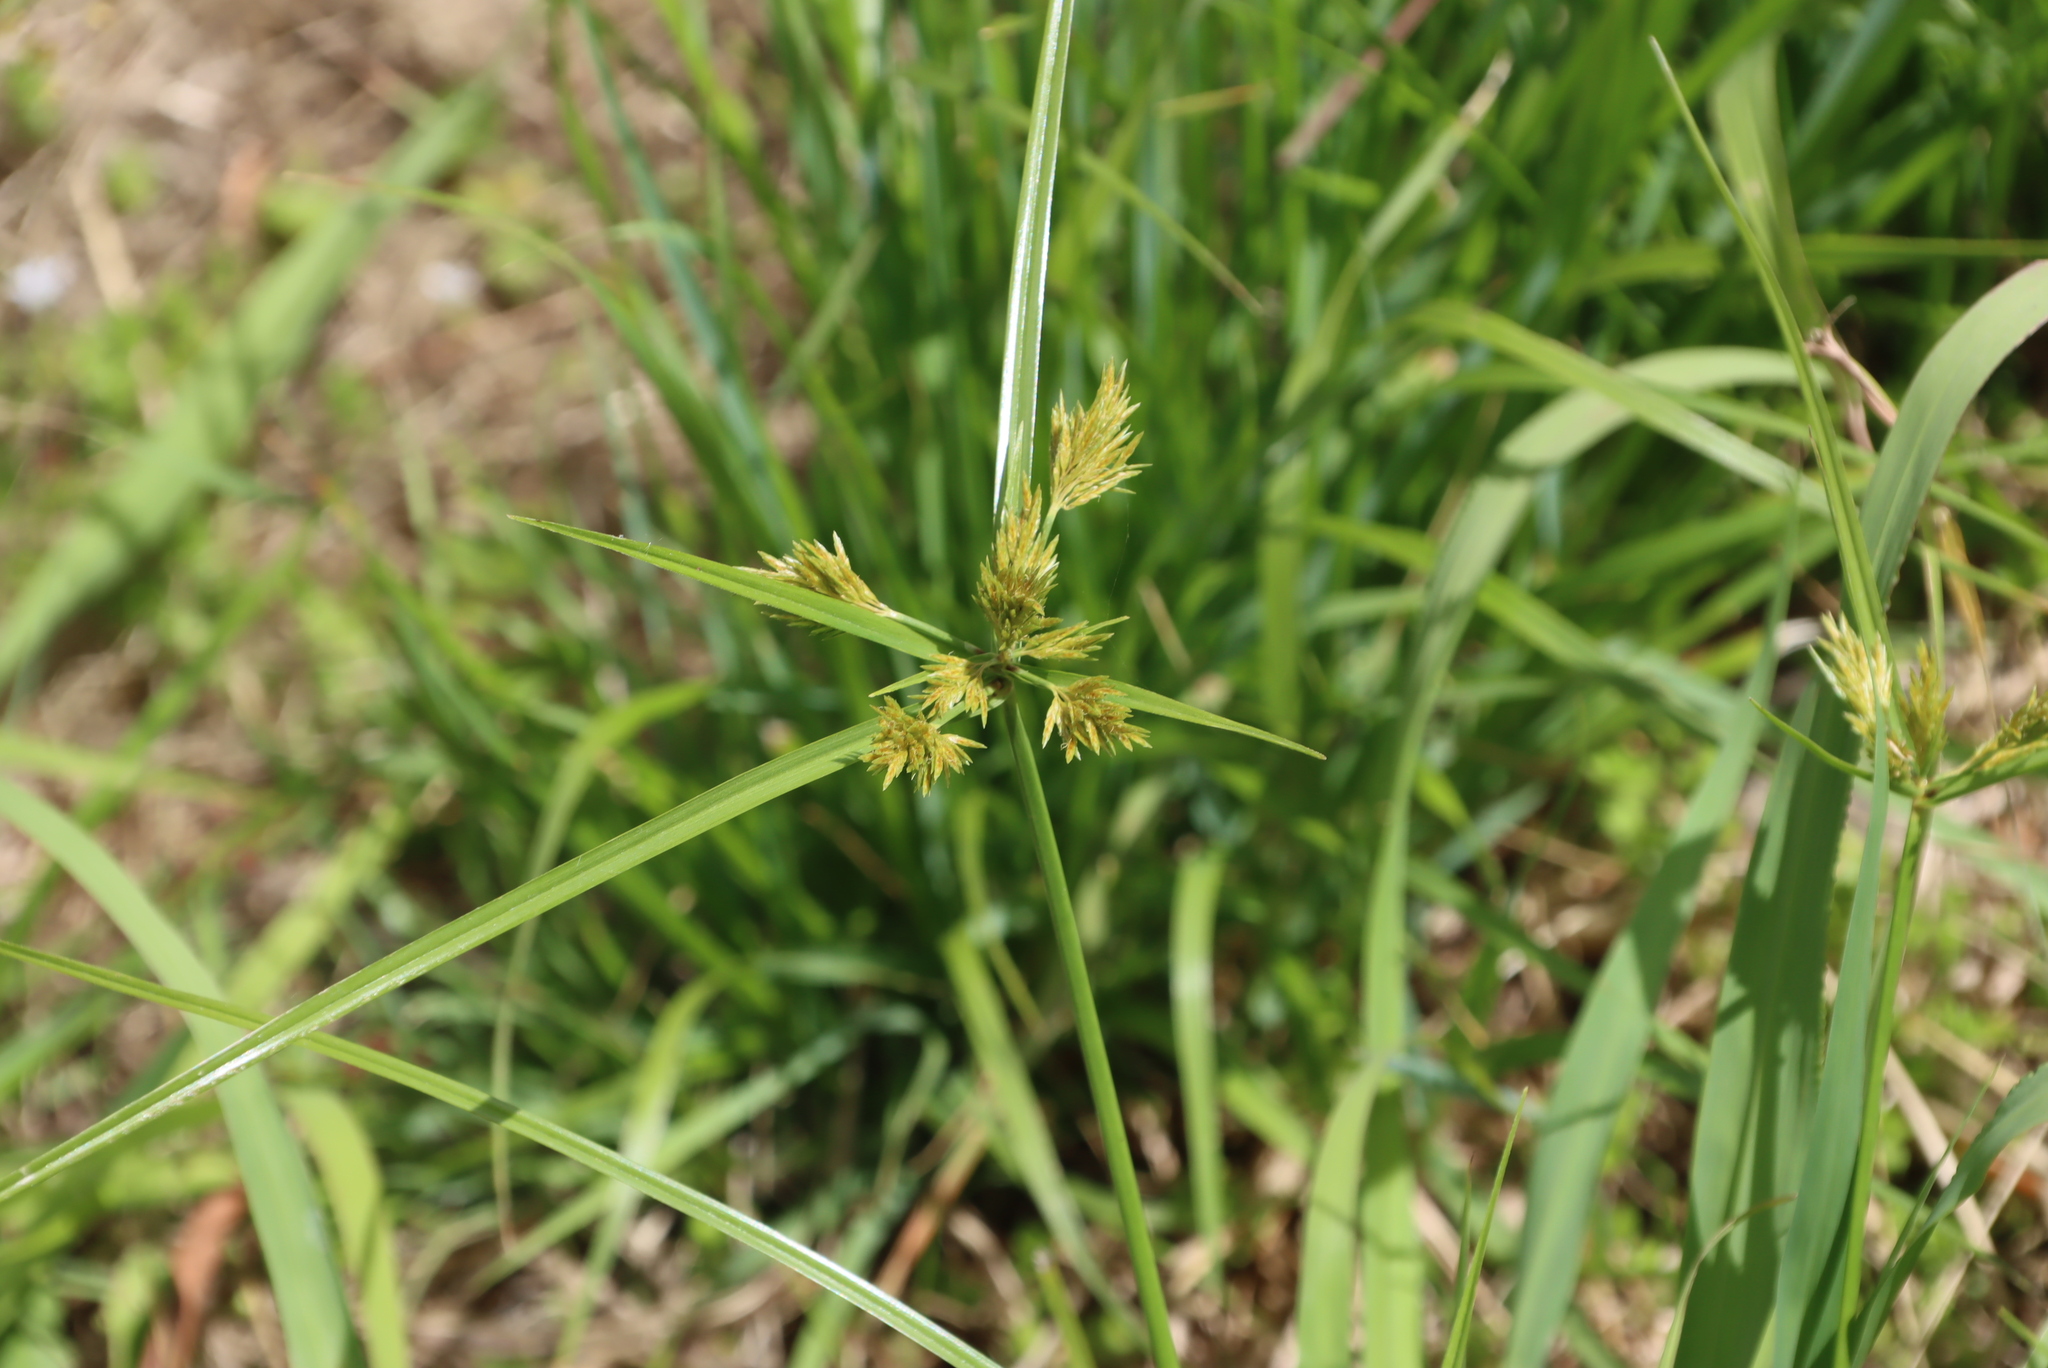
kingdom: Plantae
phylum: Tracheophyta
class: Liliopsida
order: Poales
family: Cyperaceae
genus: Cyperus
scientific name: Cyperus polystachyos
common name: Bunchy flat sedge
